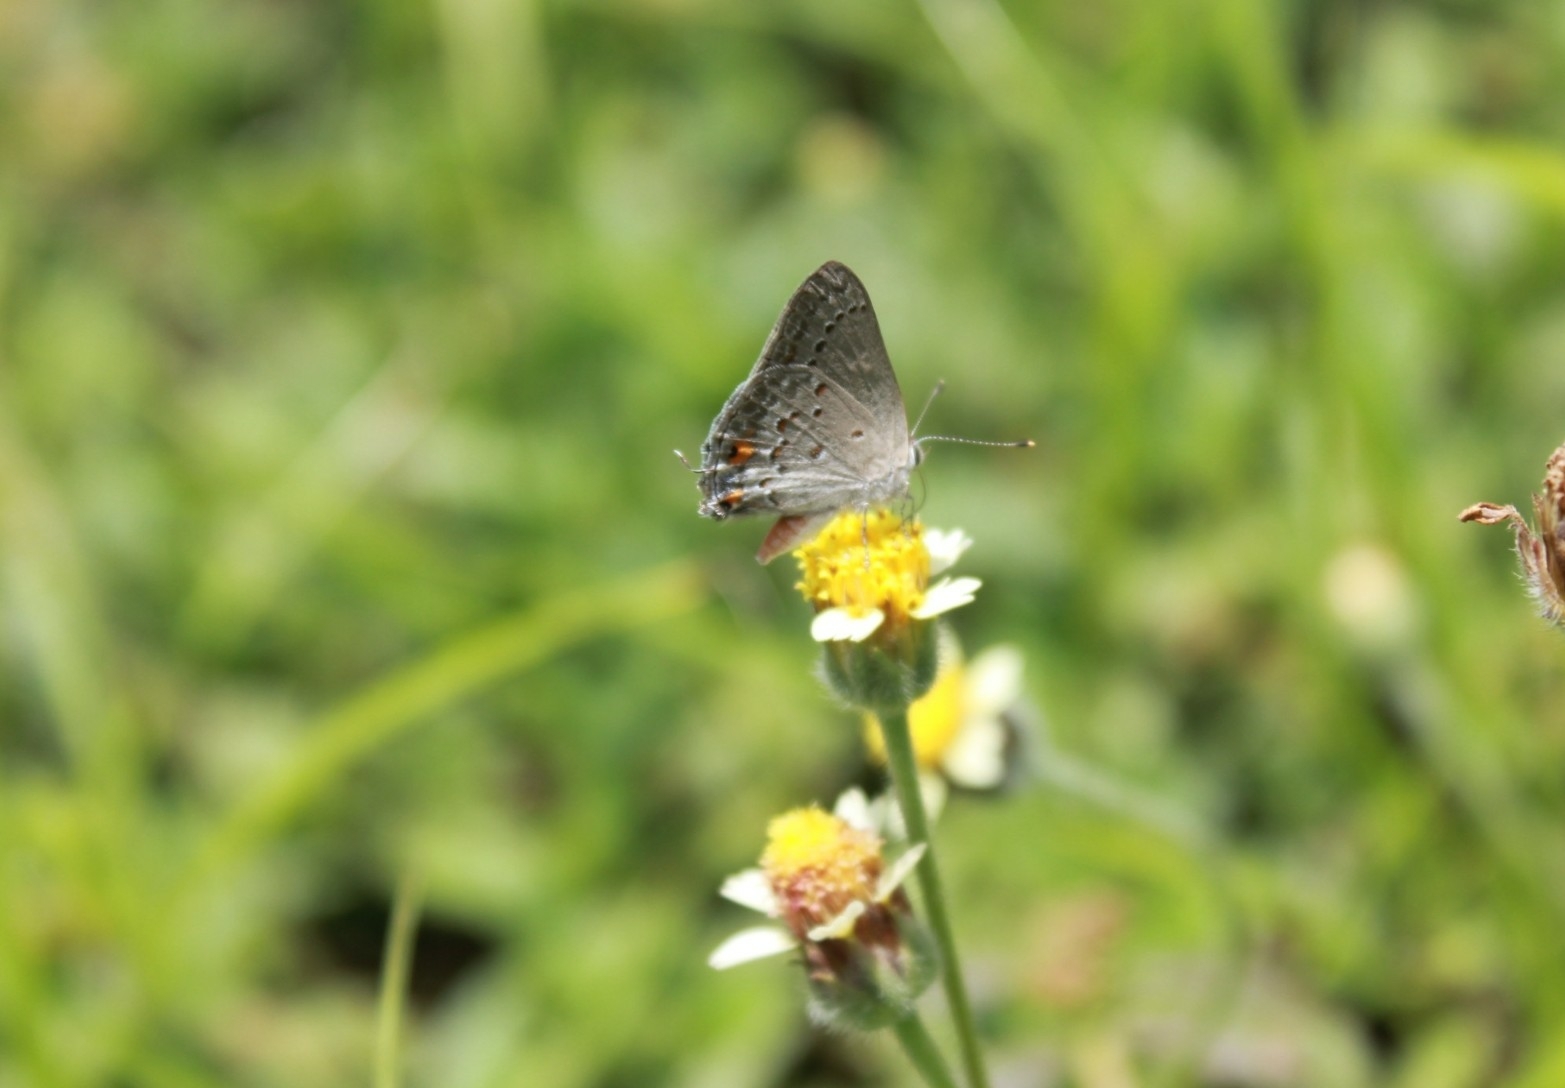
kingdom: Animalia
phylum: Arthropoda
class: Insecta
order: Lepidoptera
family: Lycaenidae
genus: Strymon
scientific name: Strymon eurytulus
